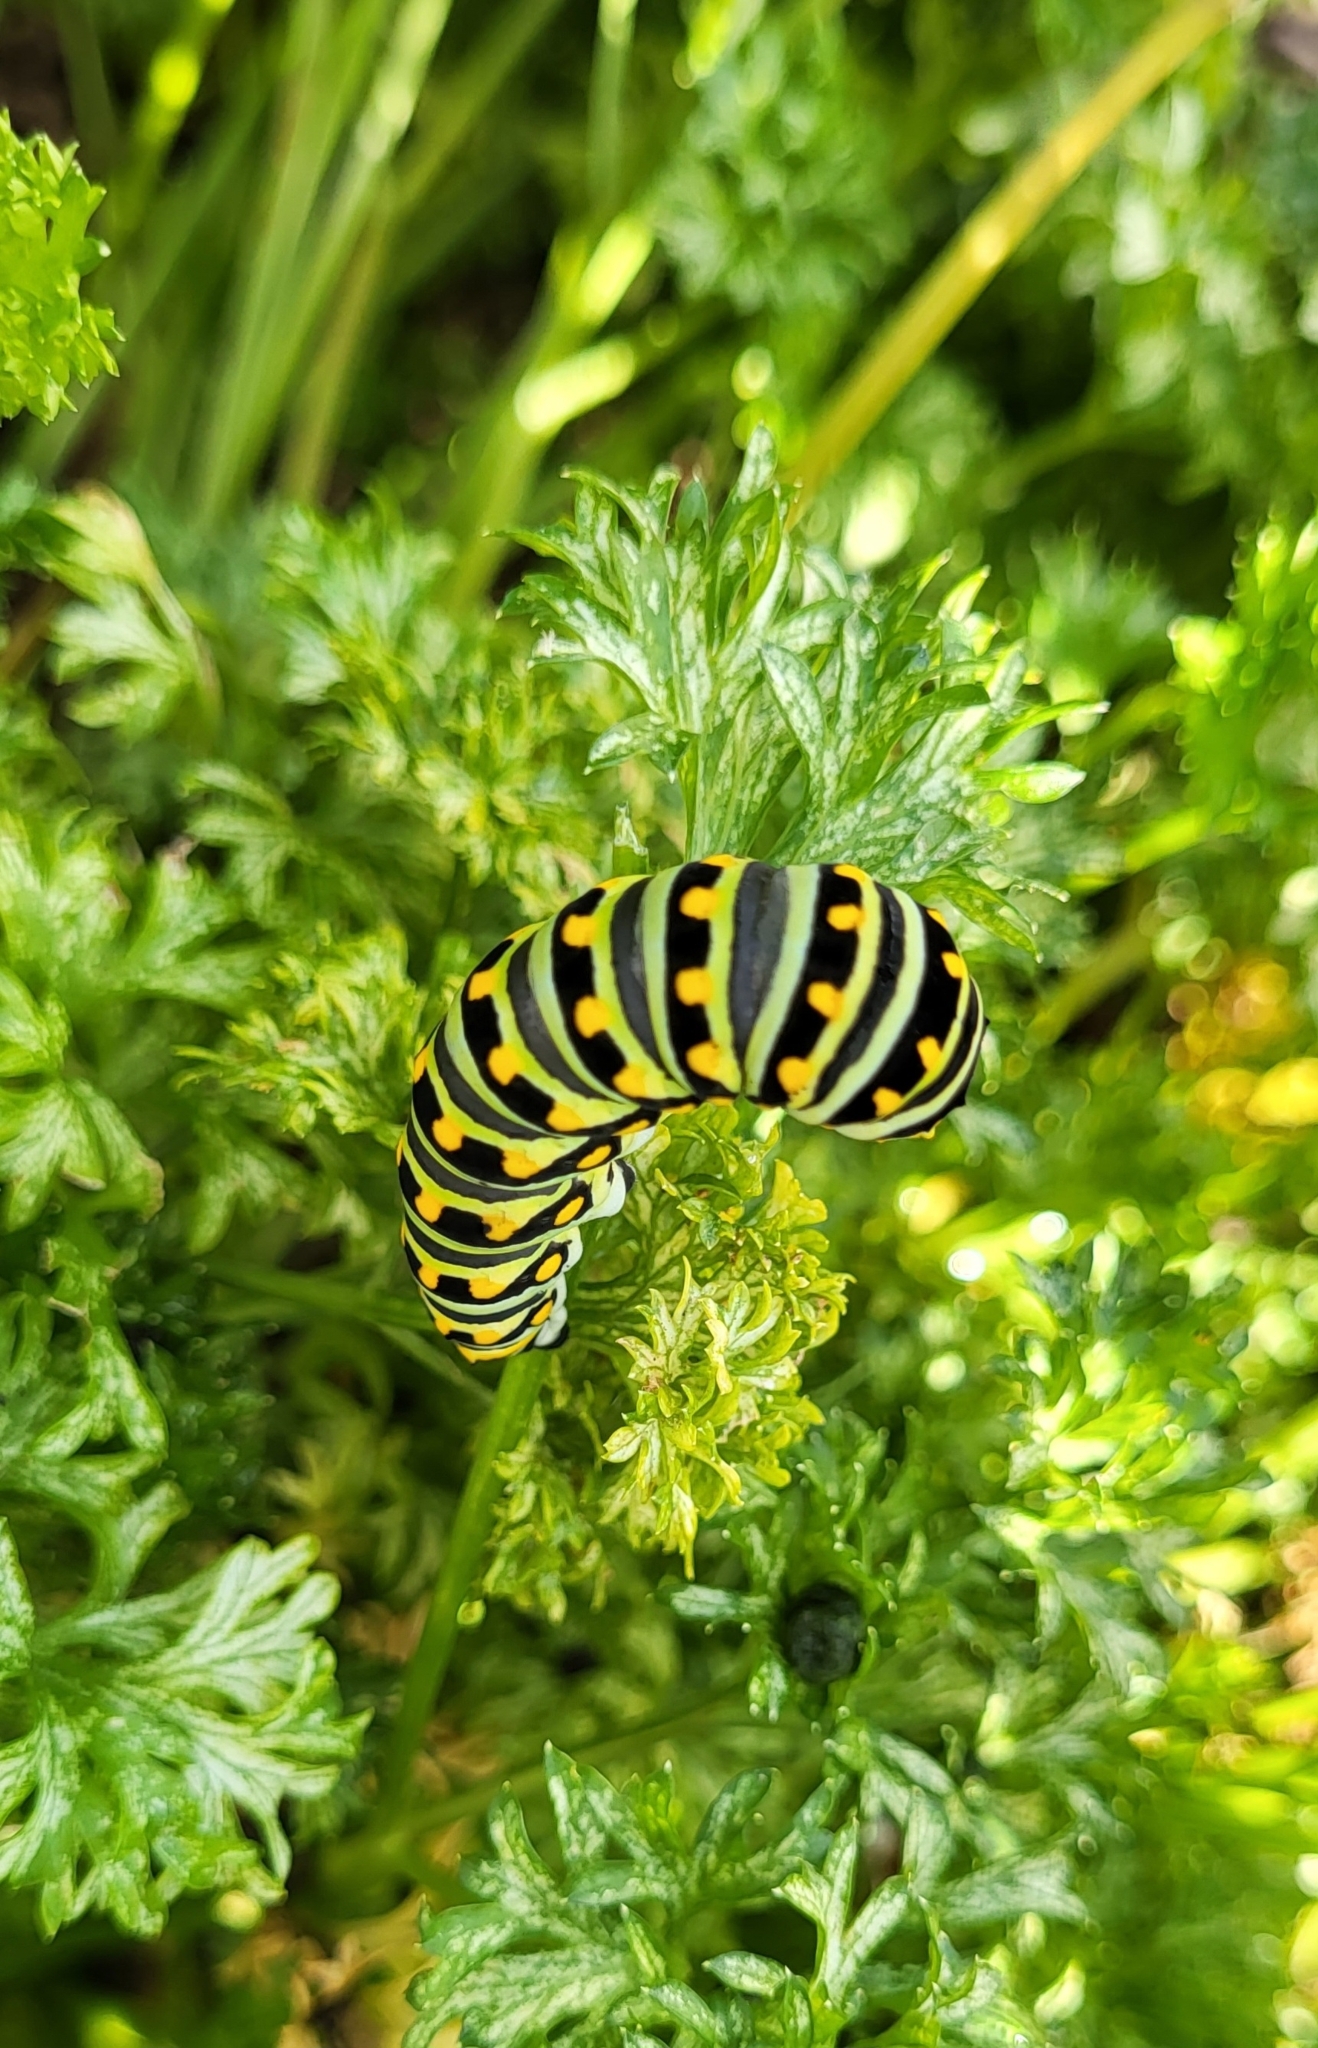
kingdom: Animalia
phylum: Arthropoda
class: Insecta
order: Lepidoptera
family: Papilionidae
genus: Papilio
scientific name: Papilio polyxenes
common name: Black swallowtail
